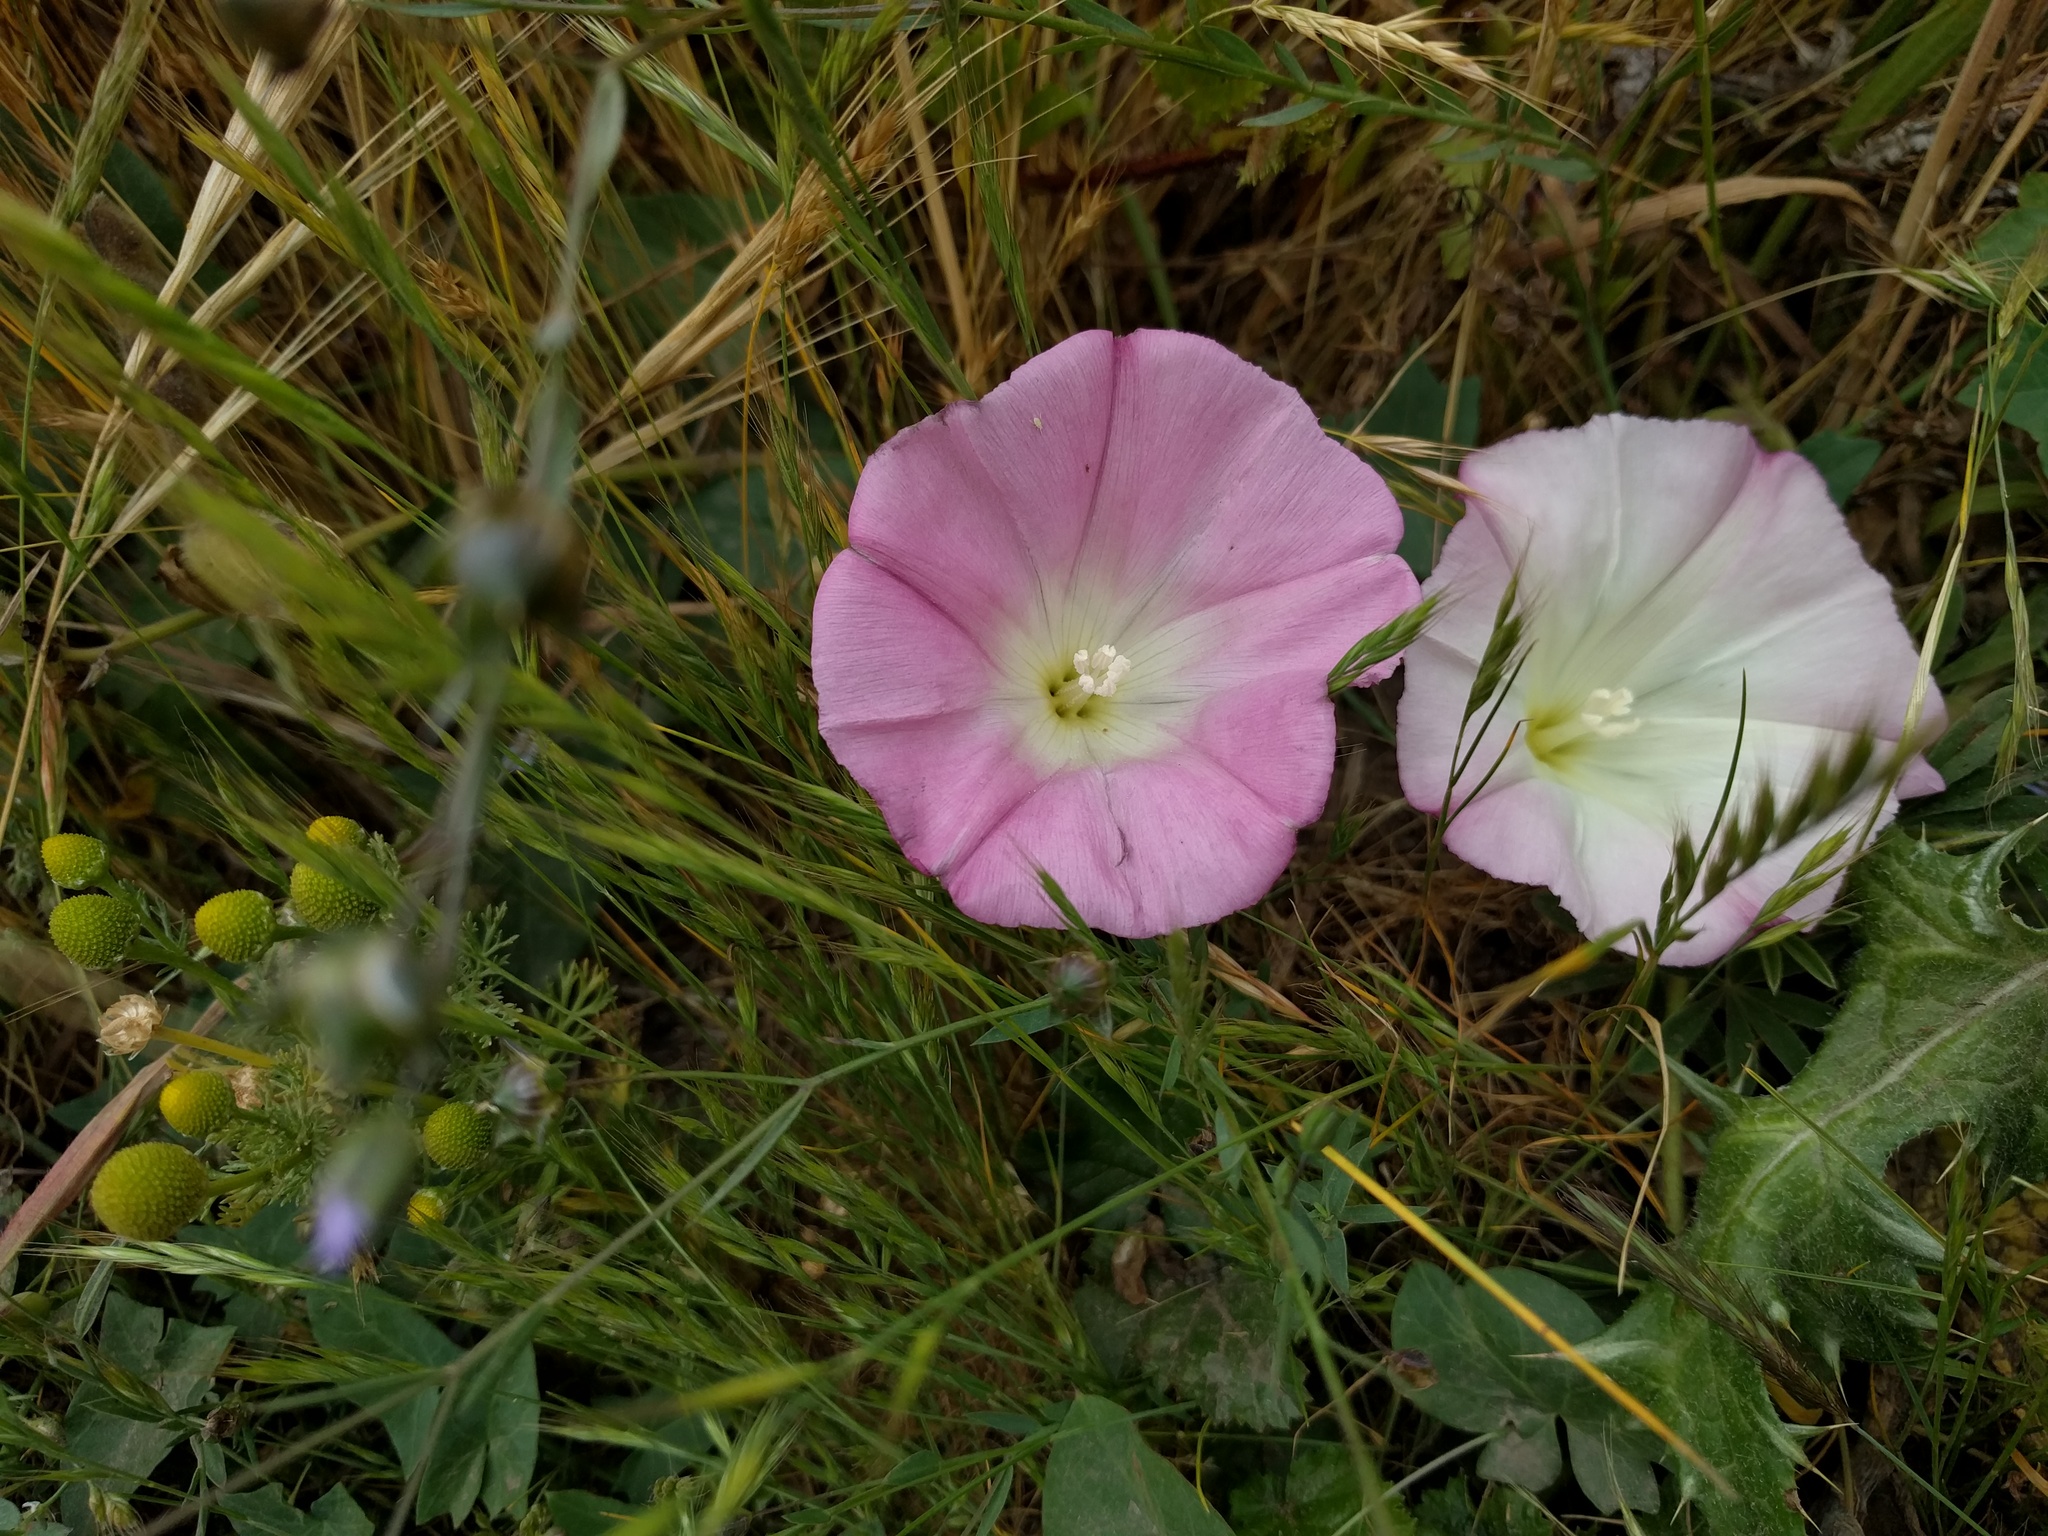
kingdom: Plantae
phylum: Tracheophyta
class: Magnoliopsida
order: Solanales
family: Convolvulaceae
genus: Calystegia
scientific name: Calystegia purpurata
